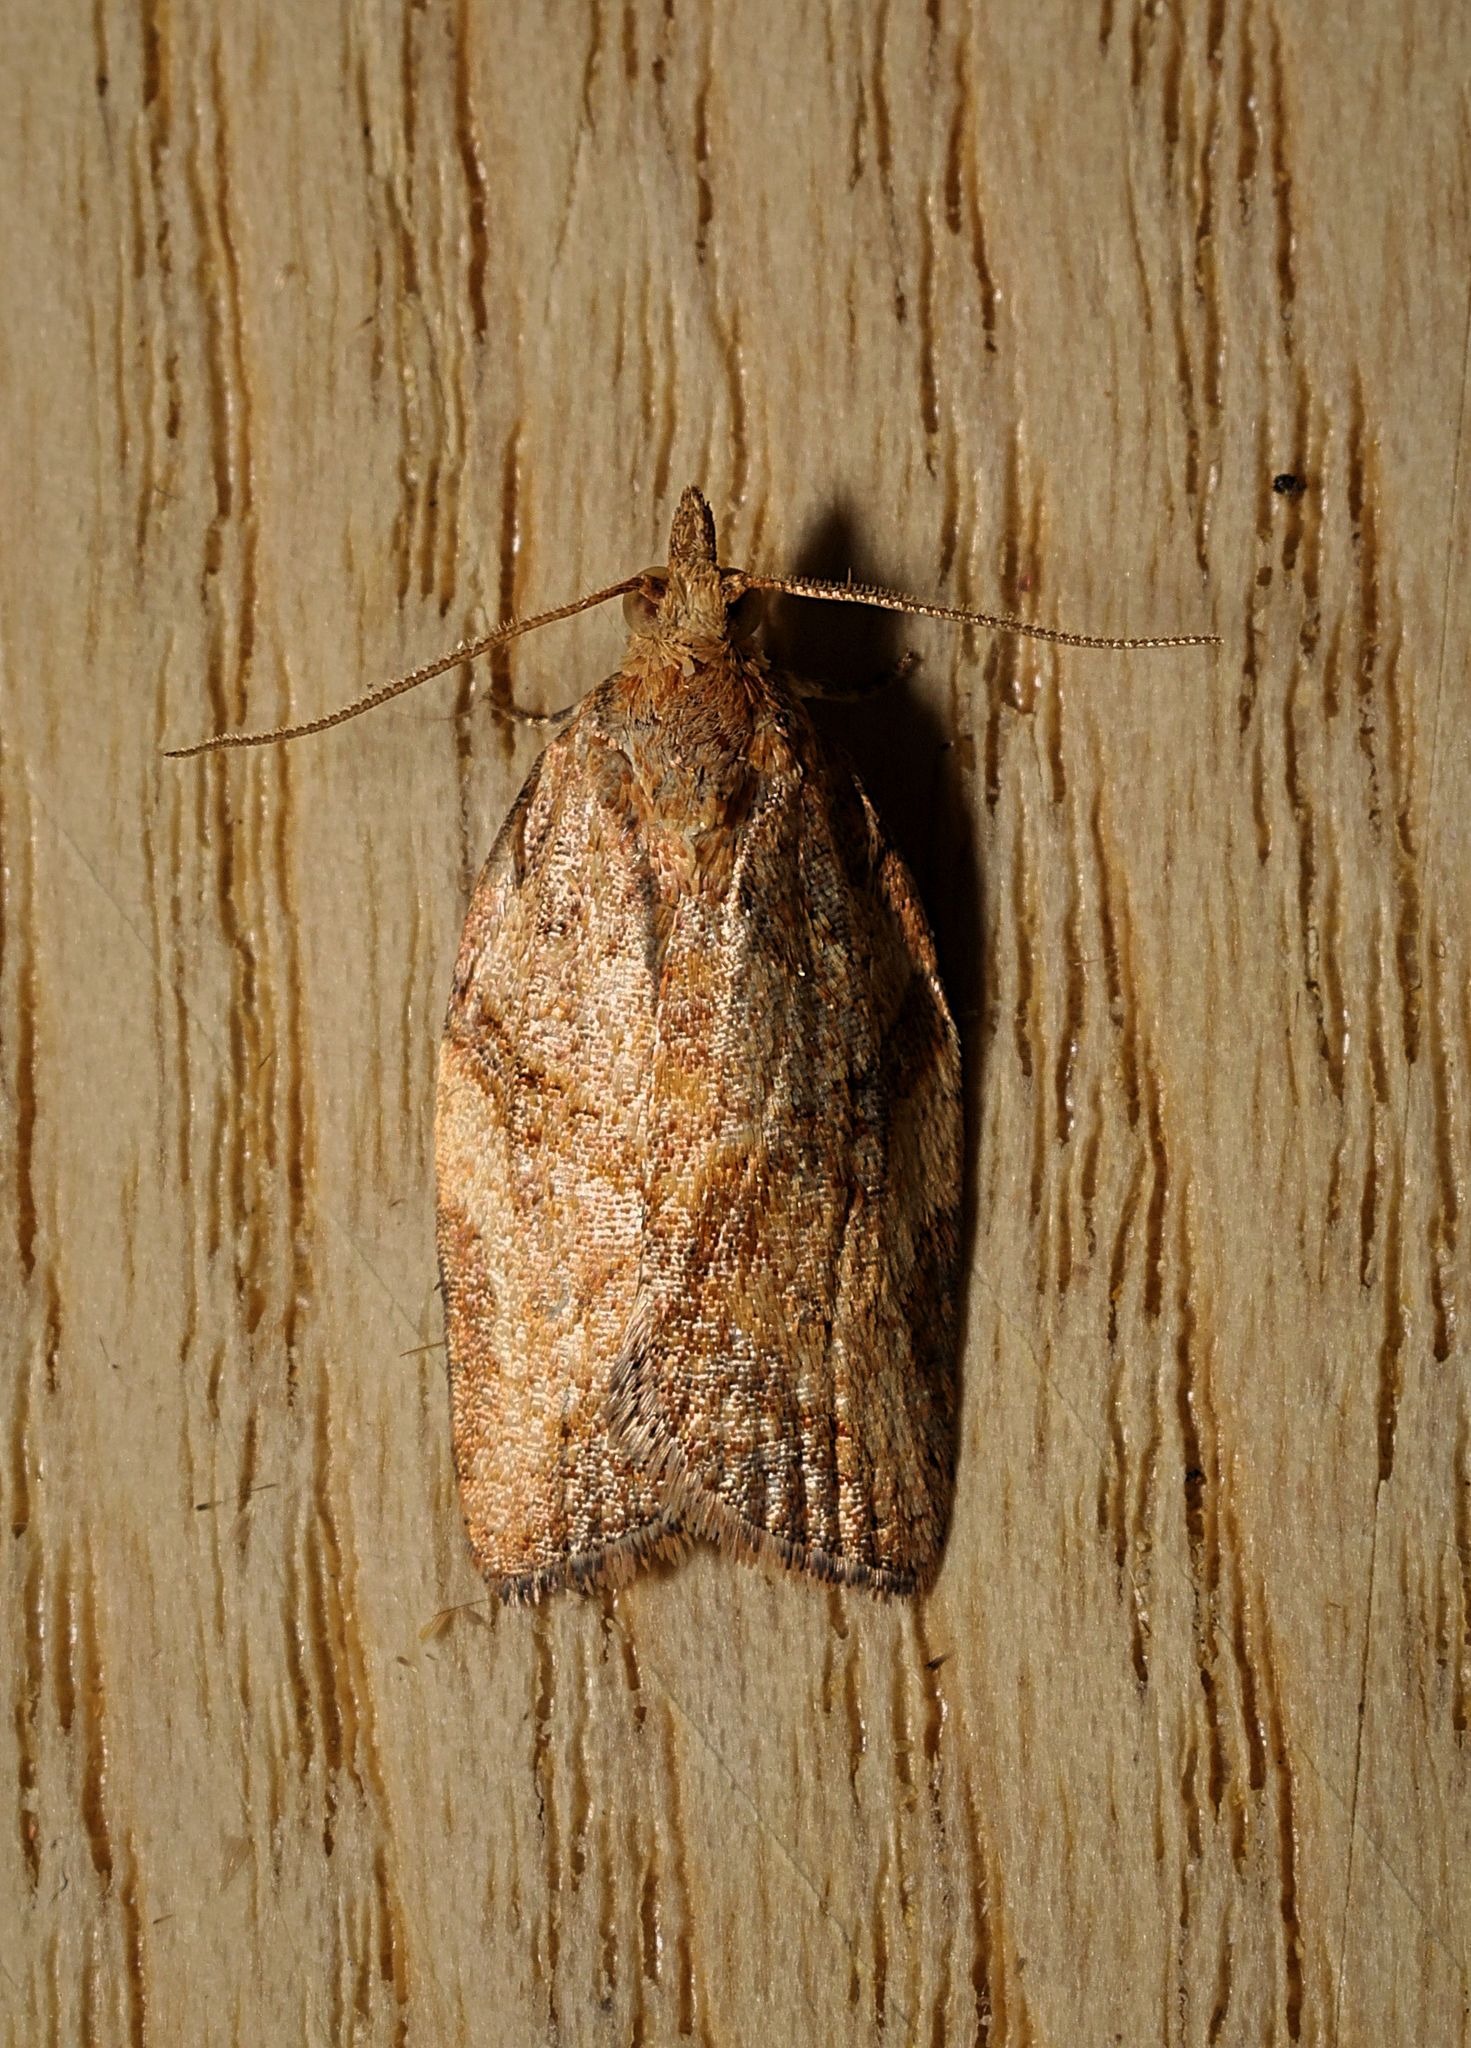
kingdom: Animalia
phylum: Arthropoda
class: Insecta
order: Lepidoptera
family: Tortricidae
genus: Epiphyas
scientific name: Epiphyas postvittana
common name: Light brown apple moth
